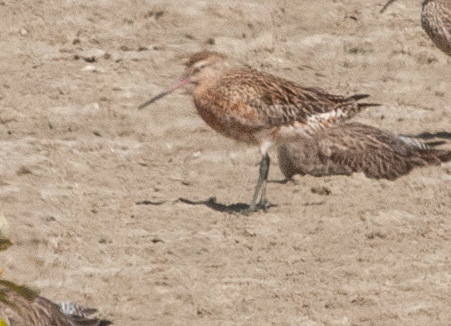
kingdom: Animalia
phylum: Chordata
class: Aves
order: Charadriiformes
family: Scolopacidae
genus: Limosa
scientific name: Limosa lapponica
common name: Bar-tailed godwit
